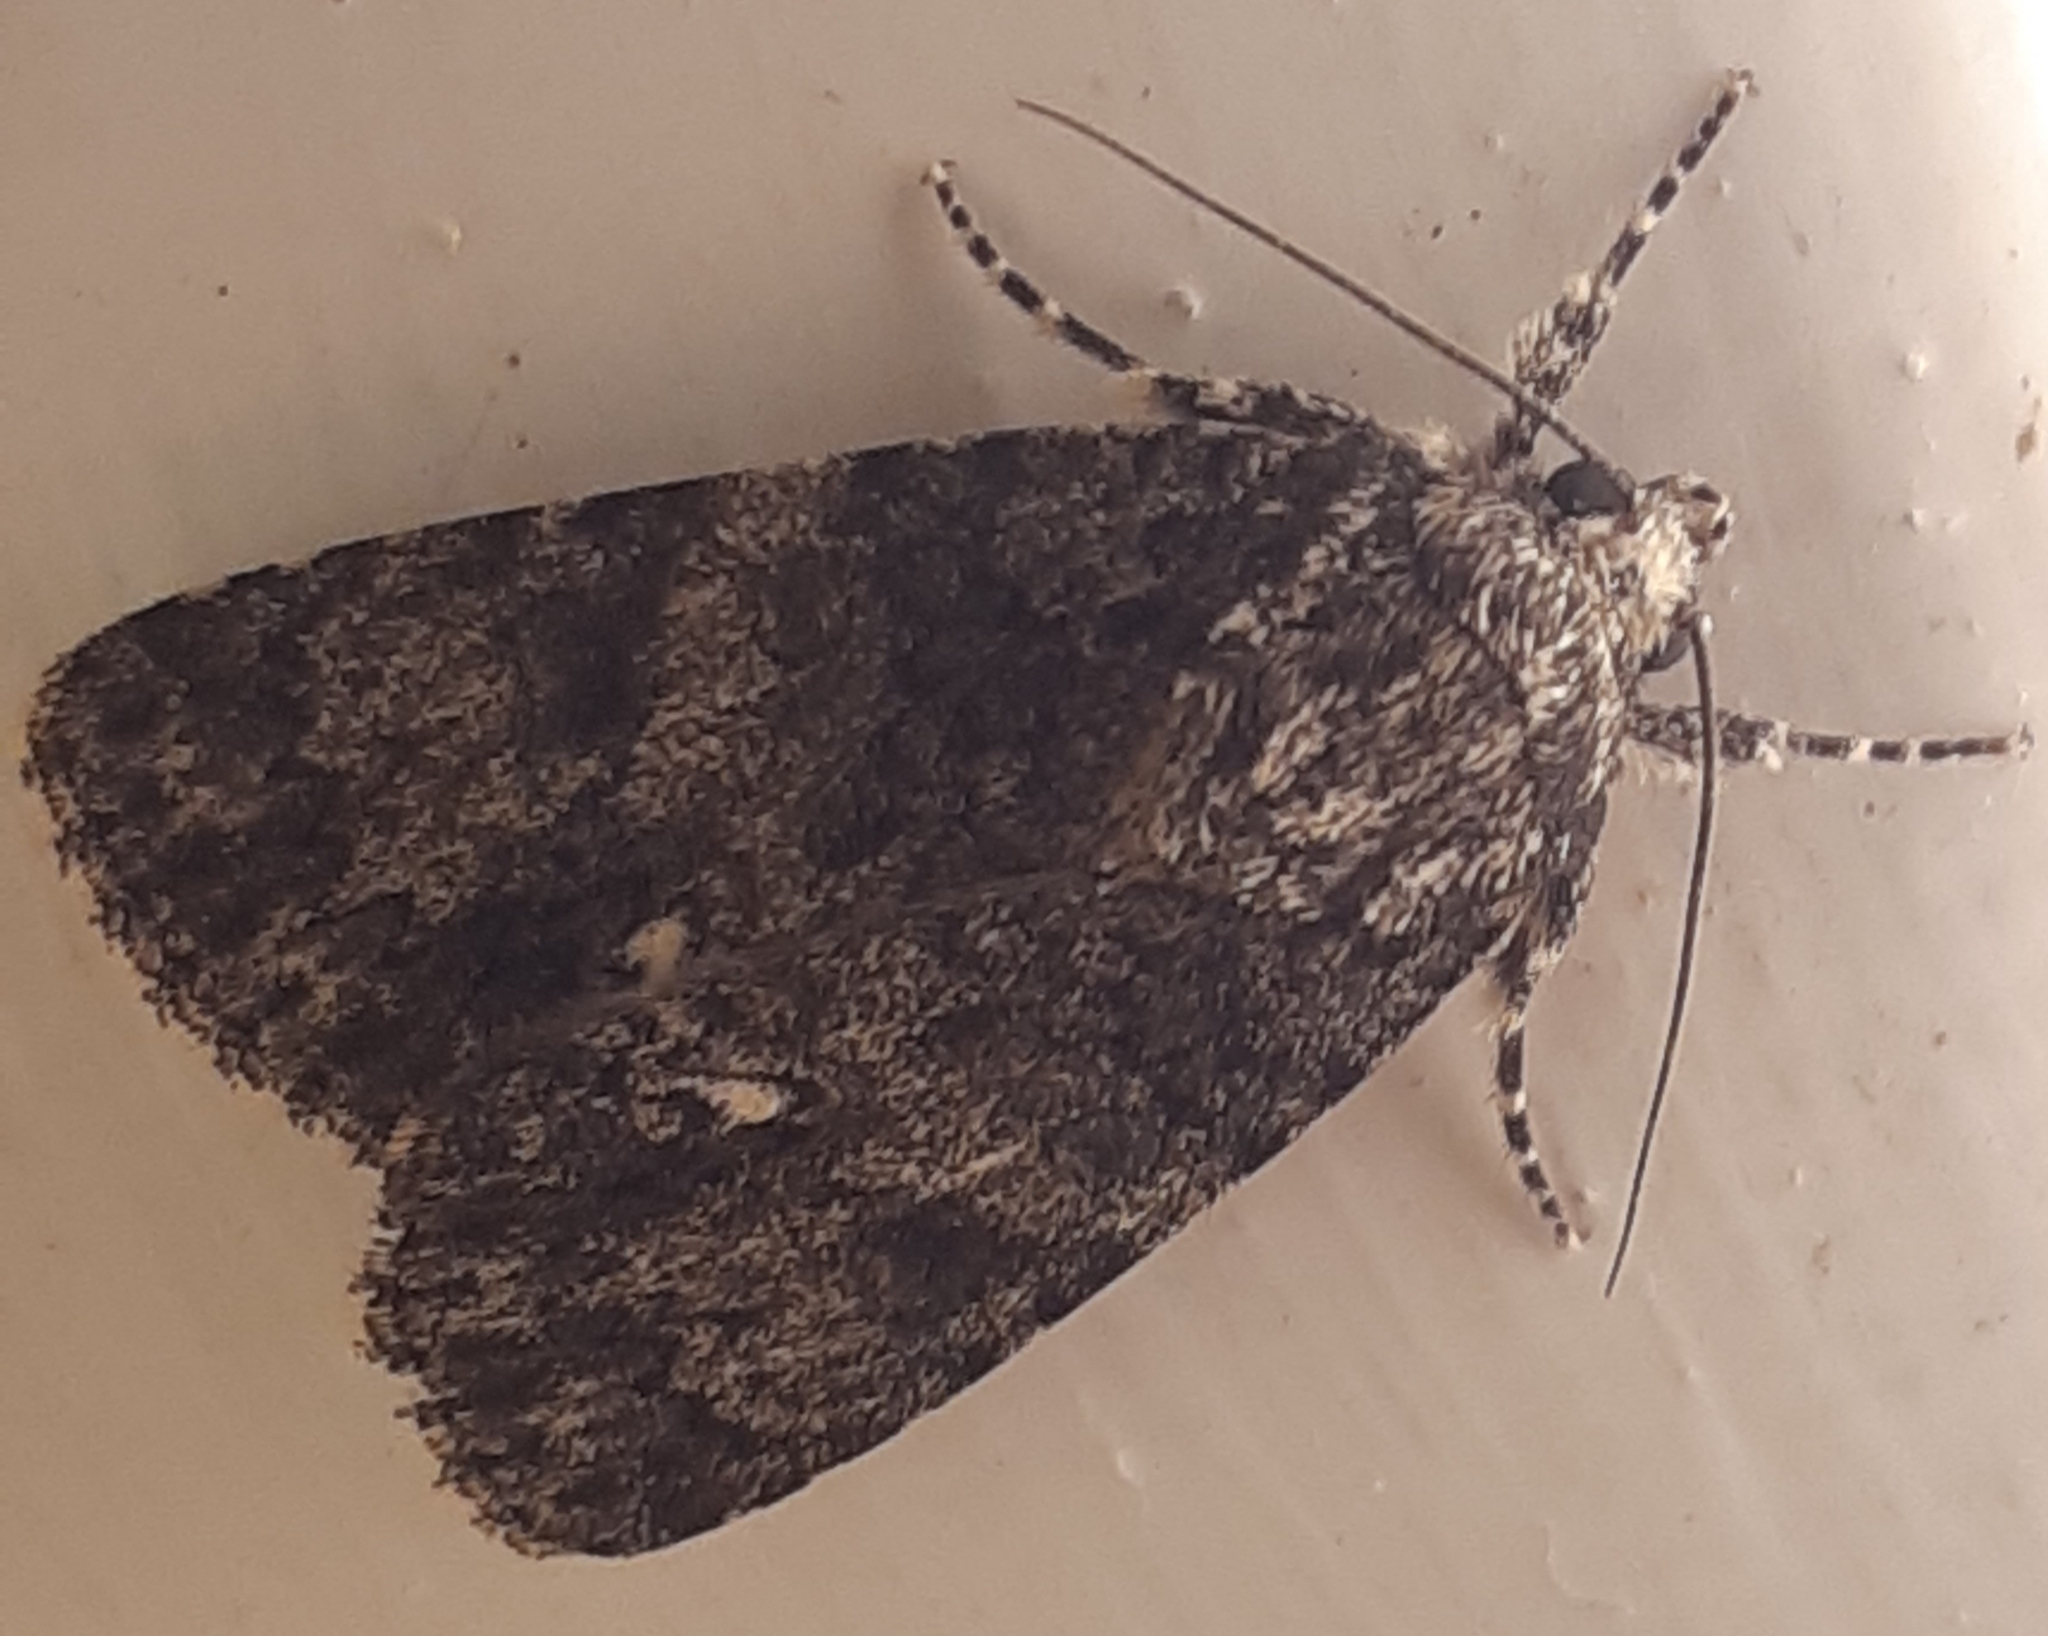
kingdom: Animalia
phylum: Arthropoda
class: Insecta
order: Lepidoptera
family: Noctuidae
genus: Acronicta
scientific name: Acronicta rumicis
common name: Knot grass
